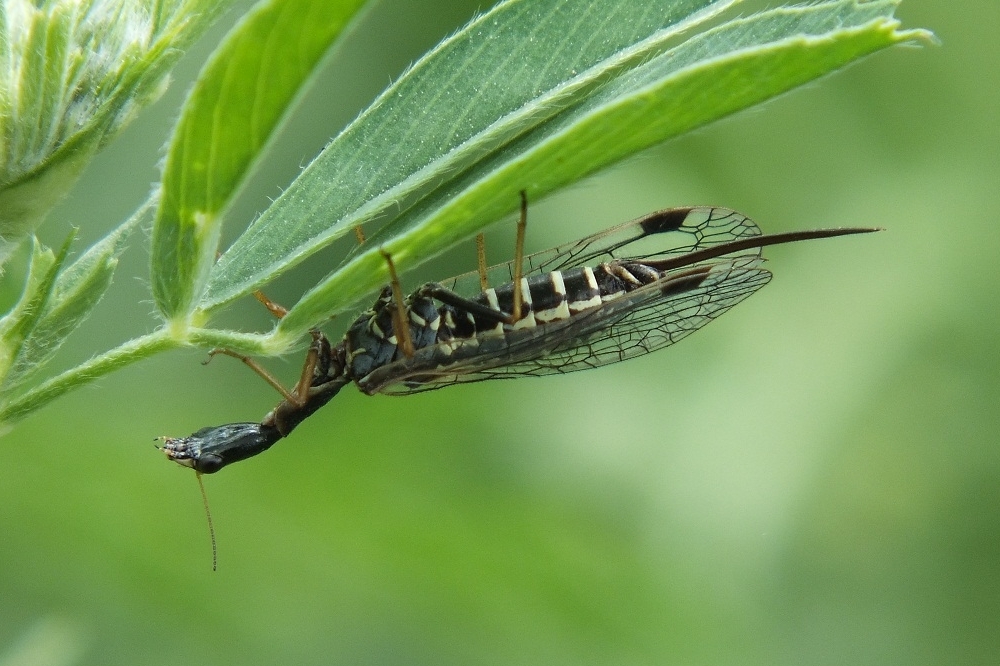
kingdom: Animalia
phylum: Arthropoda
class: Insecta
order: Raphidioptera
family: Raphidiidae
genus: Raphidia
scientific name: Raphidia ophiopsis
